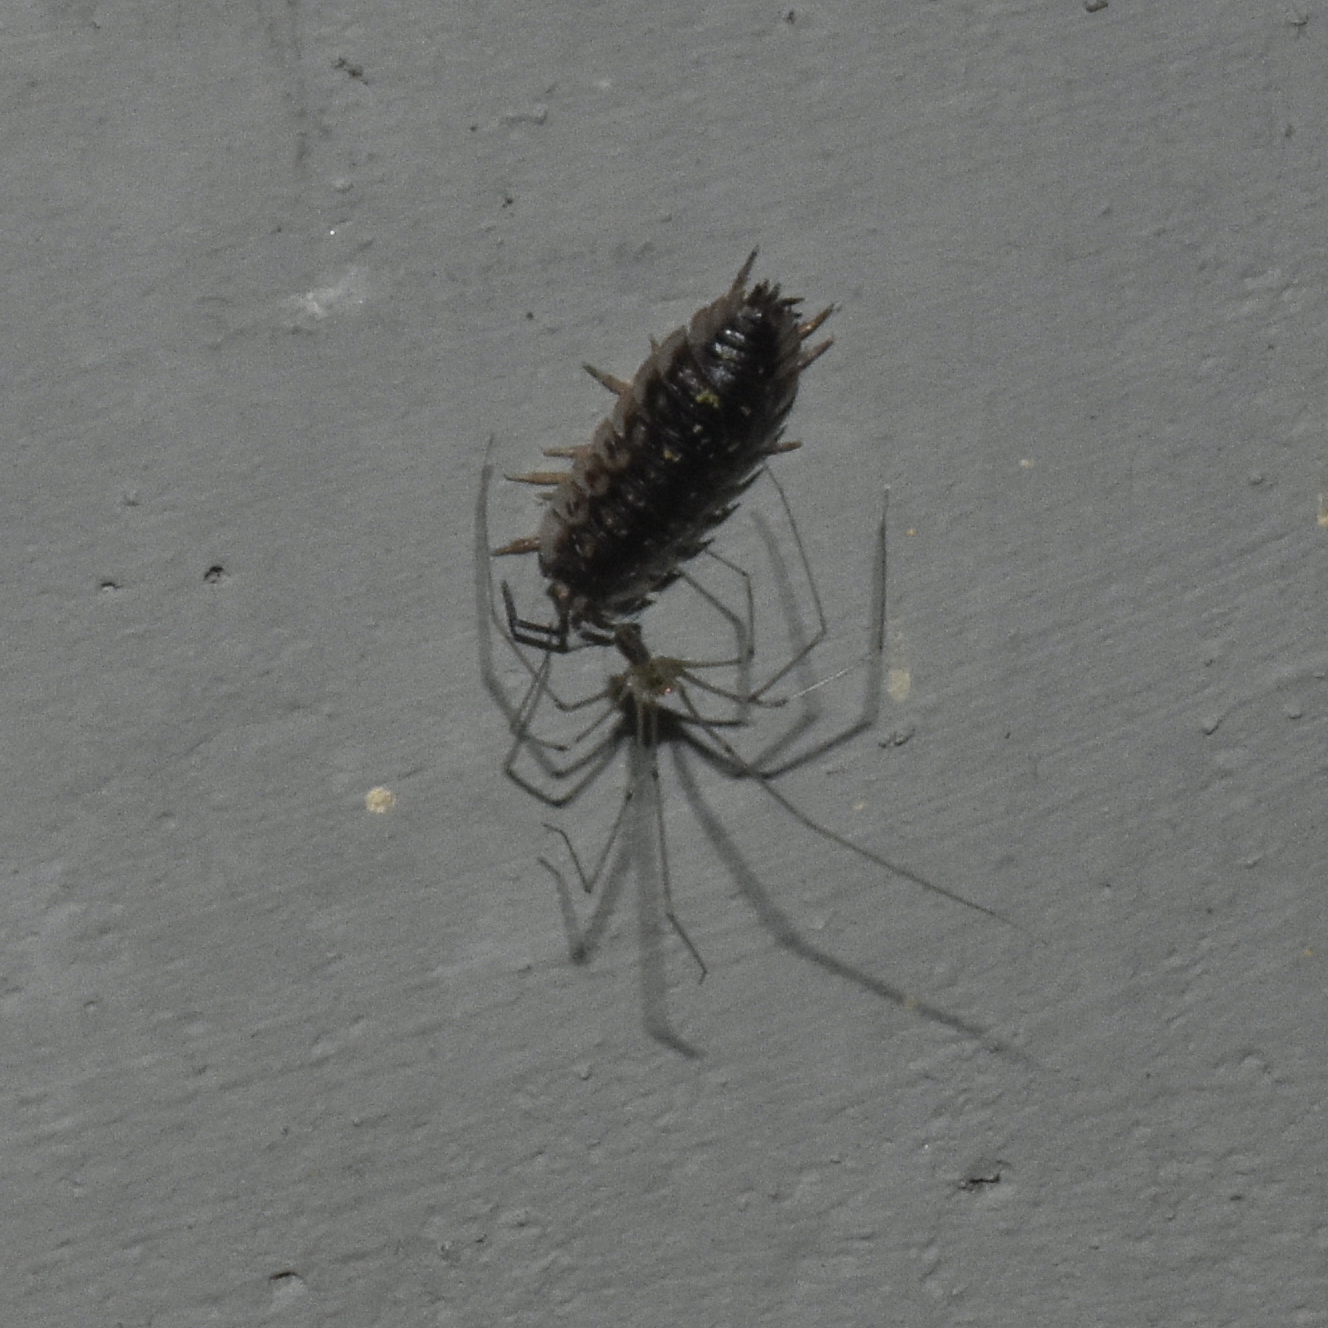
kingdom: Animalia
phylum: Arthropoda
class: Malacostraca
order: Isopoda
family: Oniscidae
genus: Oniscus
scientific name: Oniscus asellus
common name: Common shiny woodlouse
